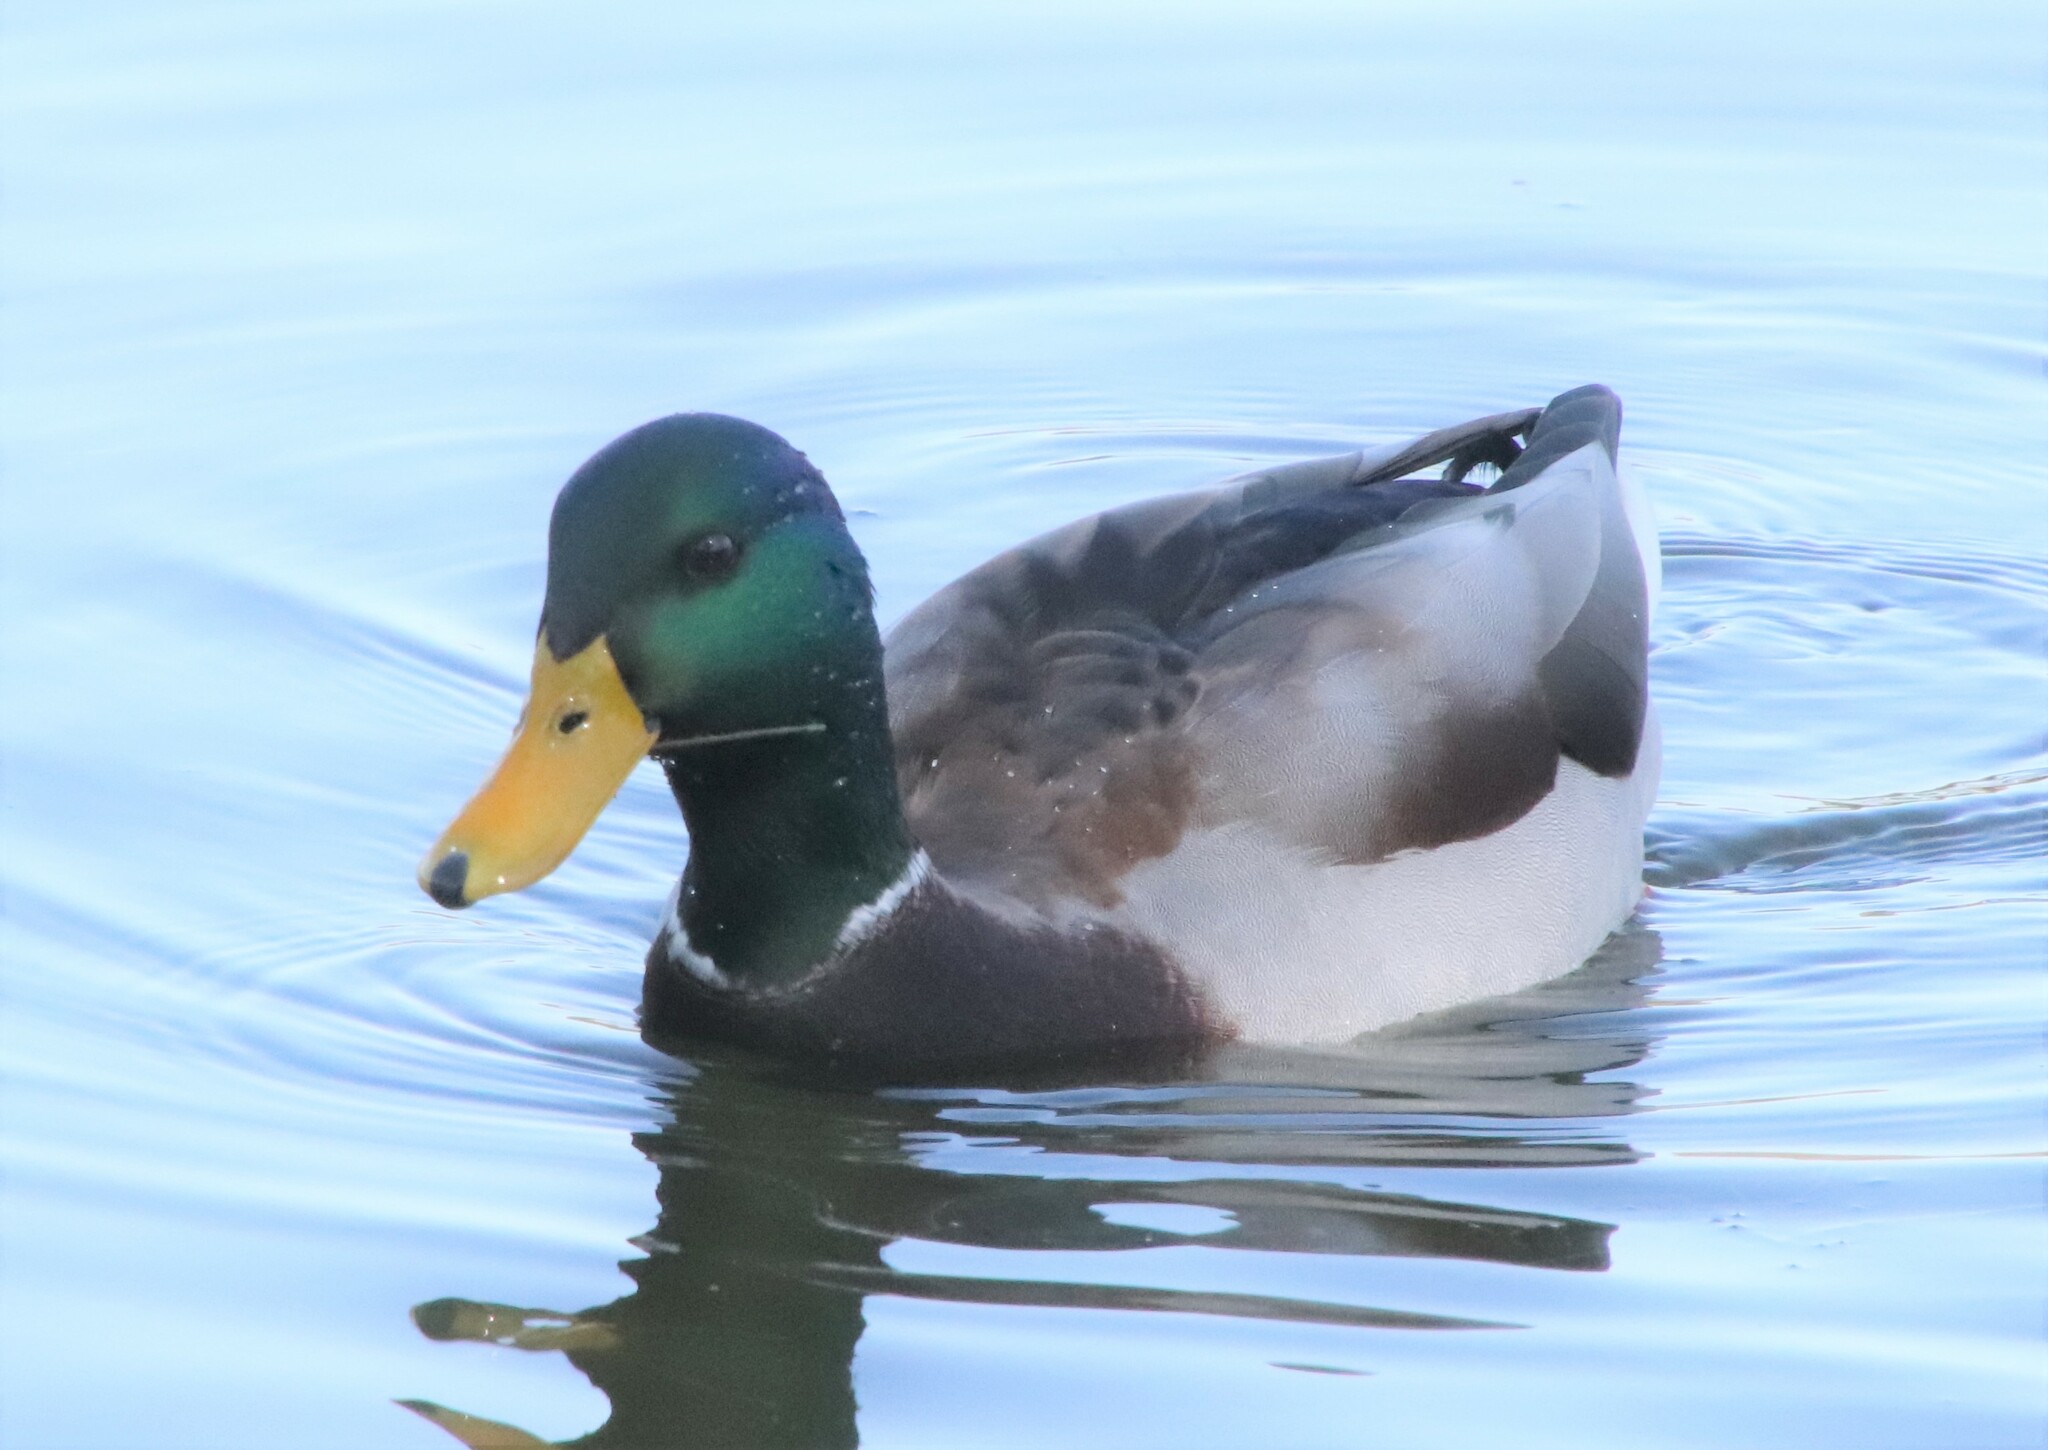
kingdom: Animalia
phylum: Chordata
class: Aves
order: Anseriformes
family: Anatidae
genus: Anas
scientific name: Anas platyrhynchos
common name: Mallard
